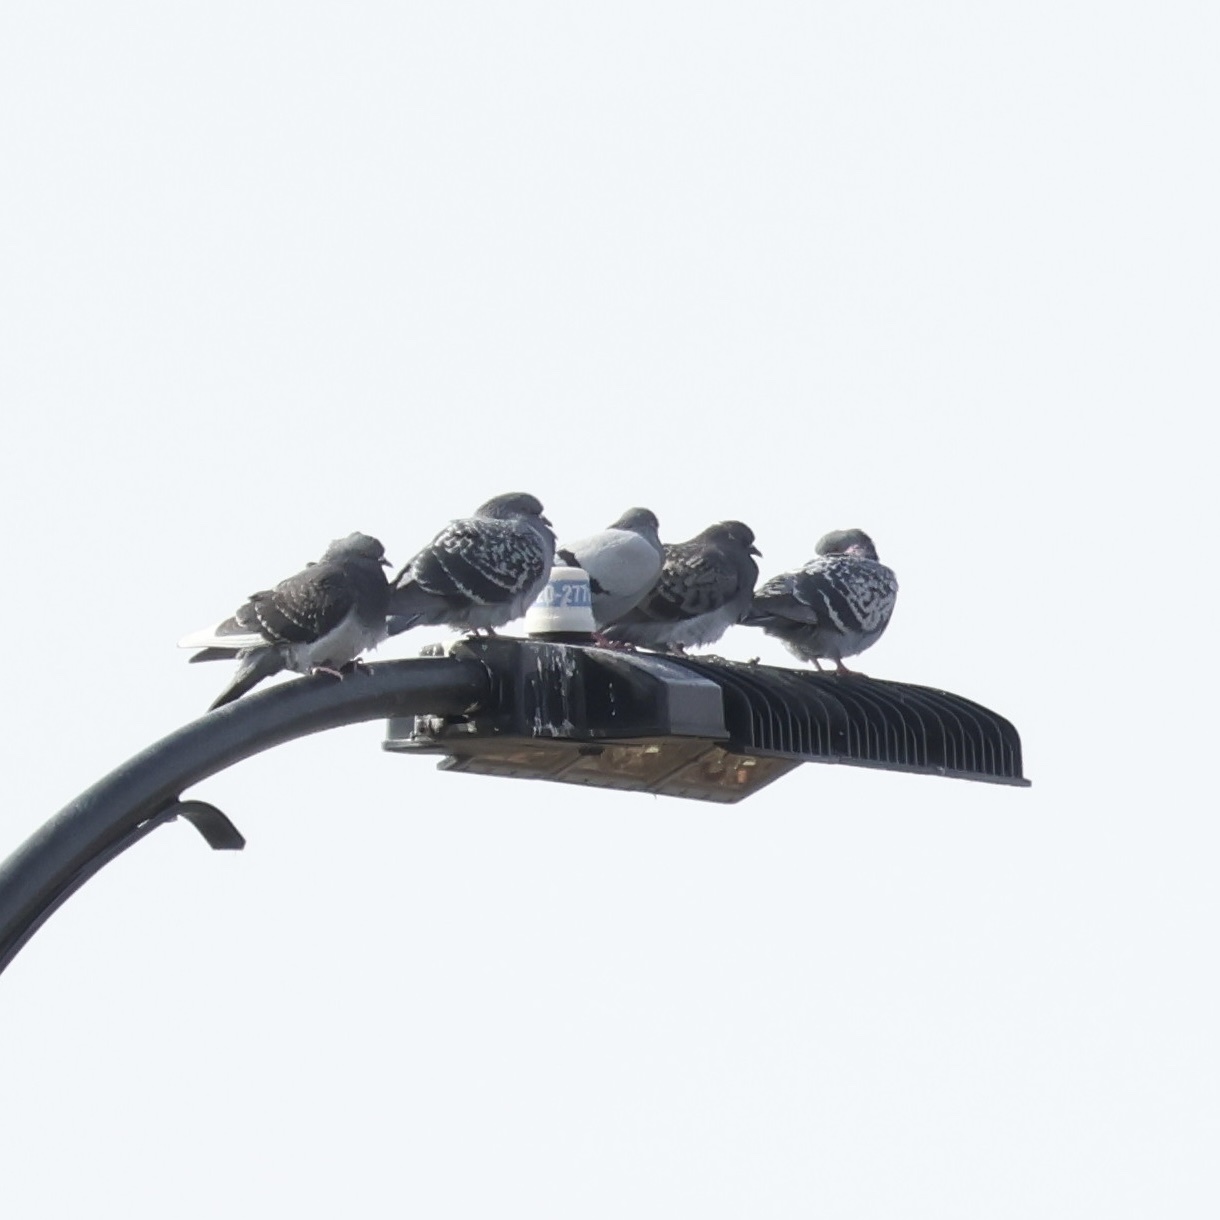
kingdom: Animalia
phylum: Chordata
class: Aves
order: Columbiformes
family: Columbidae
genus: Columba
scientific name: Columba livia
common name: Rock pigeon
